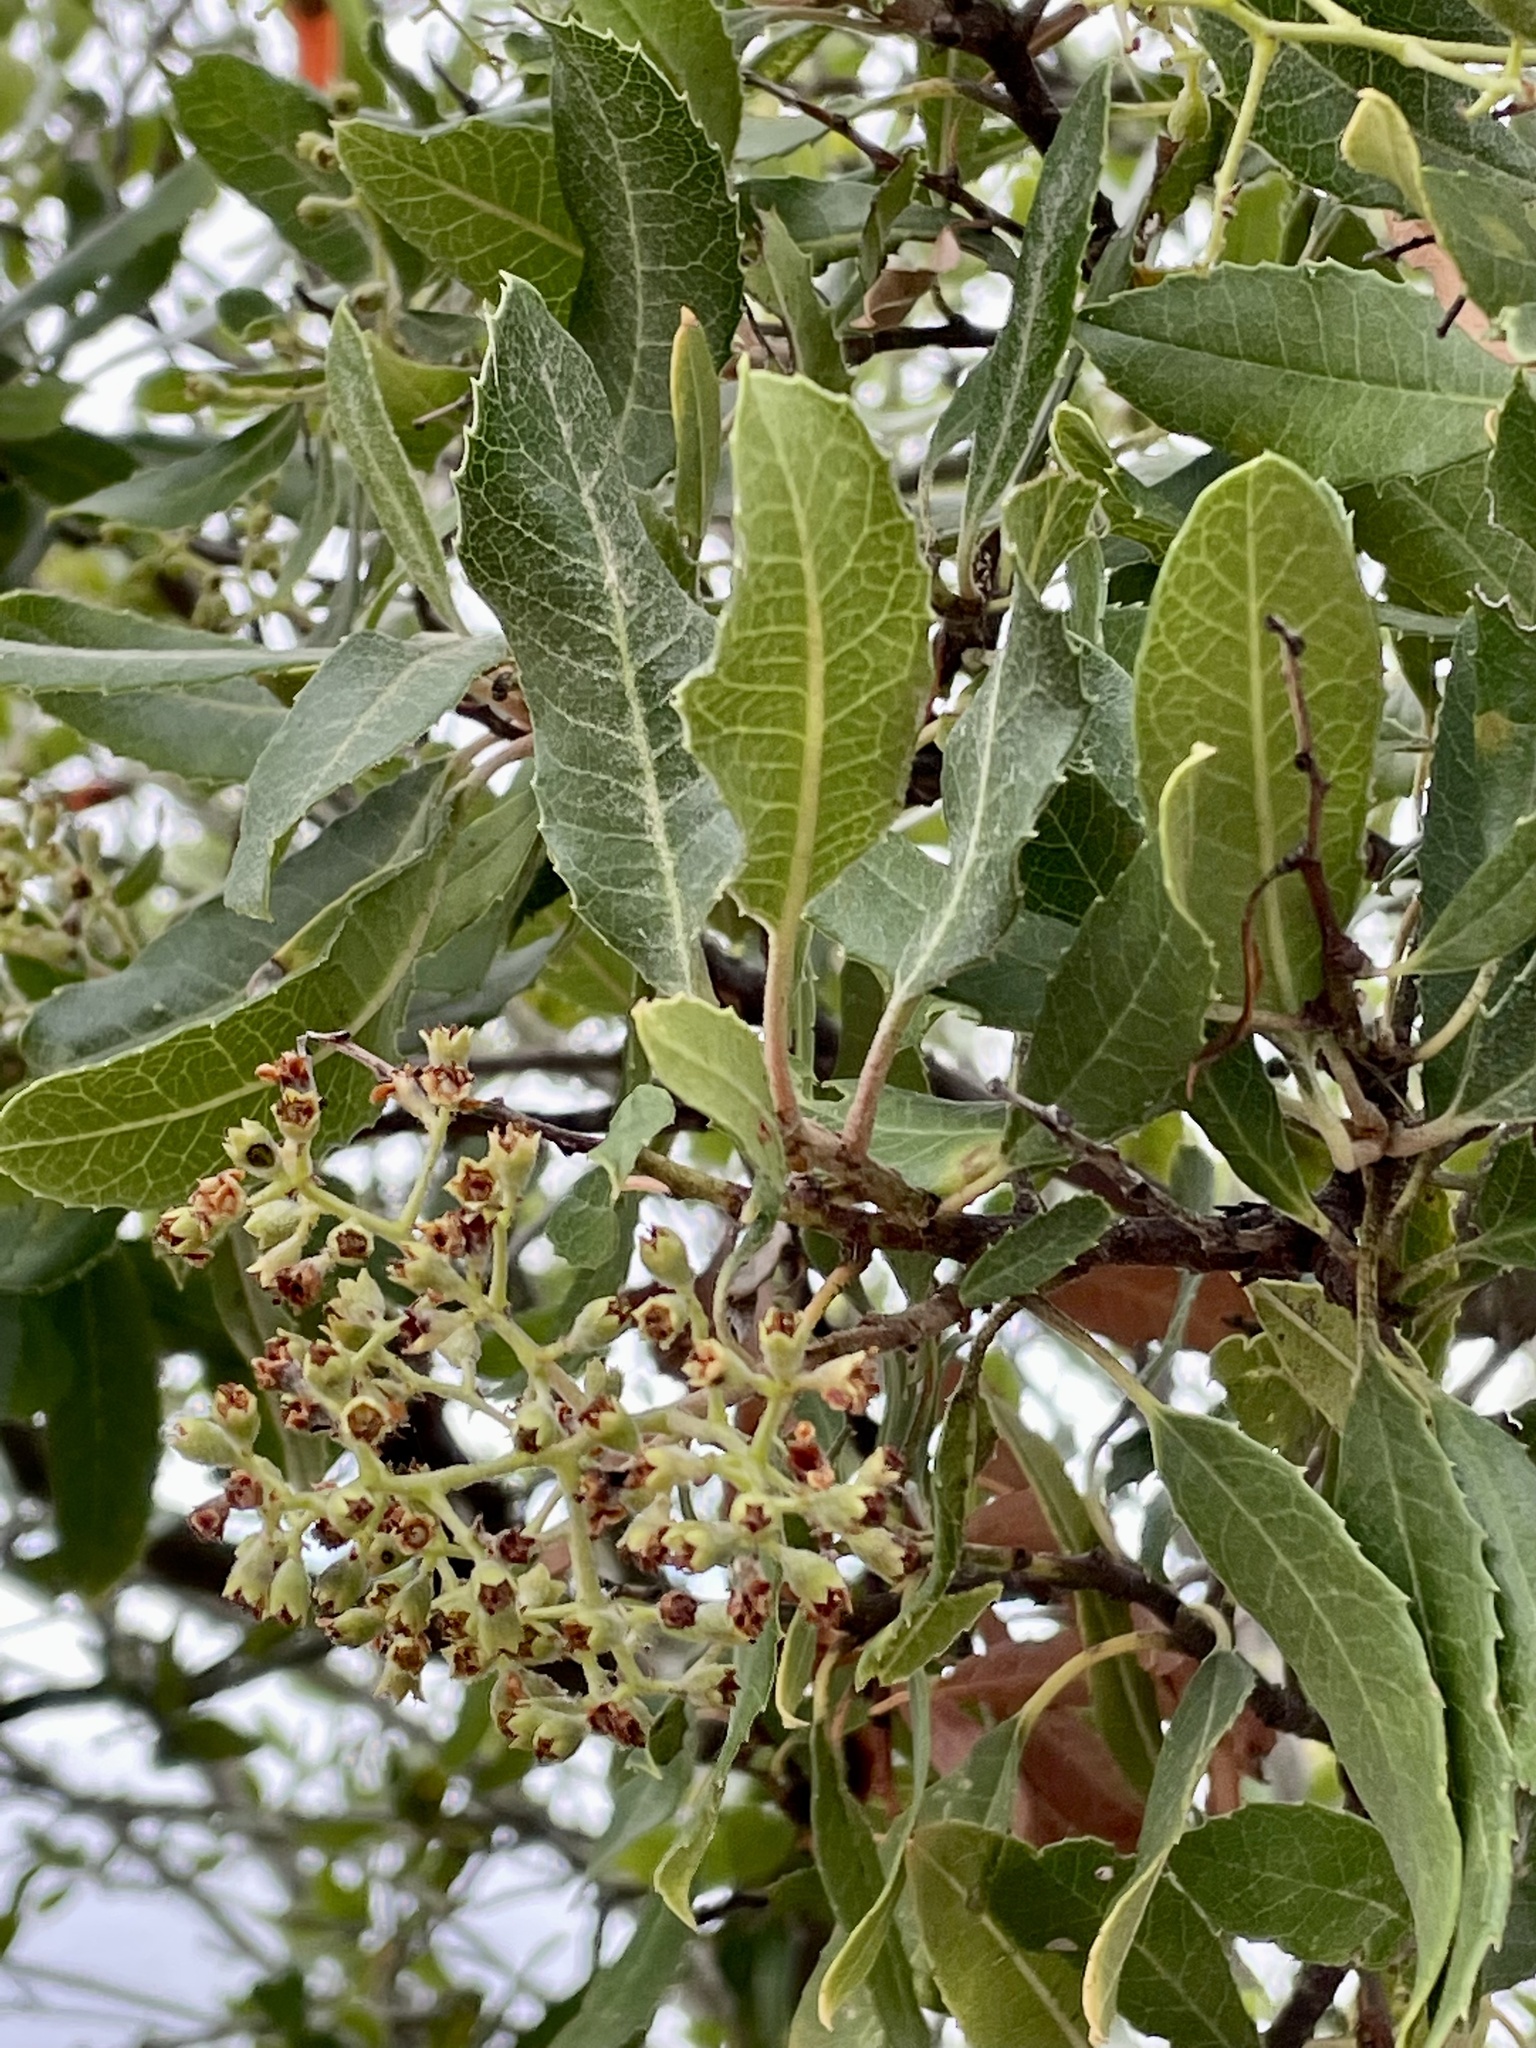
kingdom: Plantae
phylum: Tracheophyta
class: Magnoliopsida
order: Rosales
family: Rosaceae
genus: Heteromeles
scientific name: Heteromeles arbutifolia
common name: California-holly
